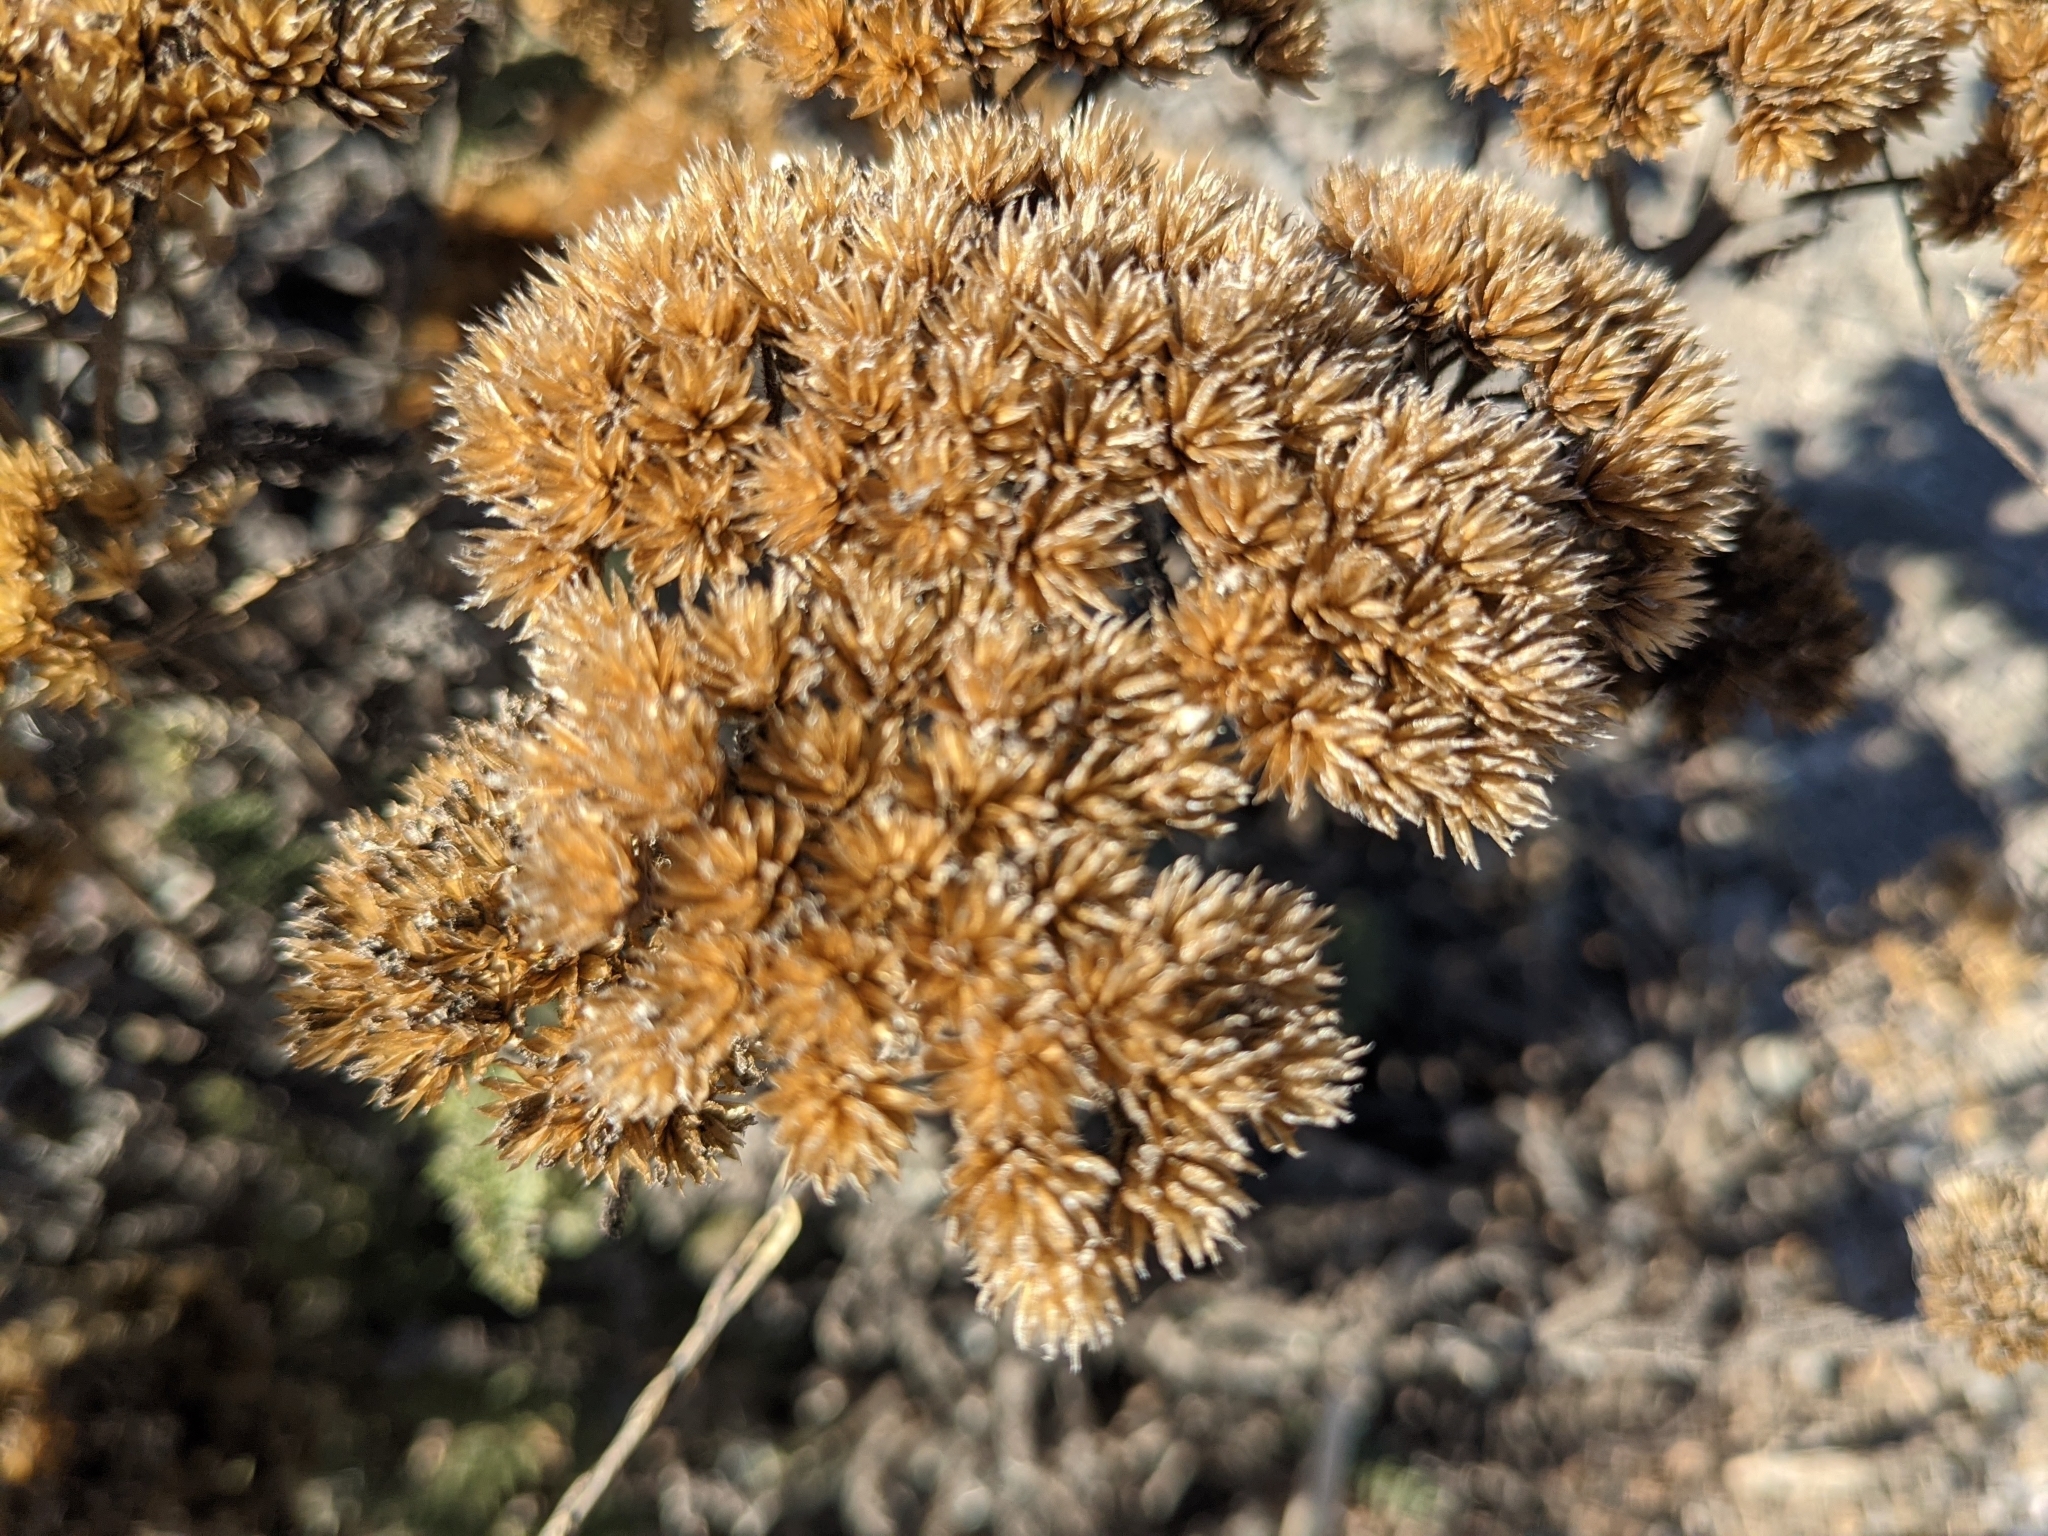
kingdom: Plantae
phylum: Tracheophyta
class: Magnoliopsida
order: Asterales
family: Asteraceae
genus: Achillea
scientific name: Achillea millefolium
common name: Yarrow
